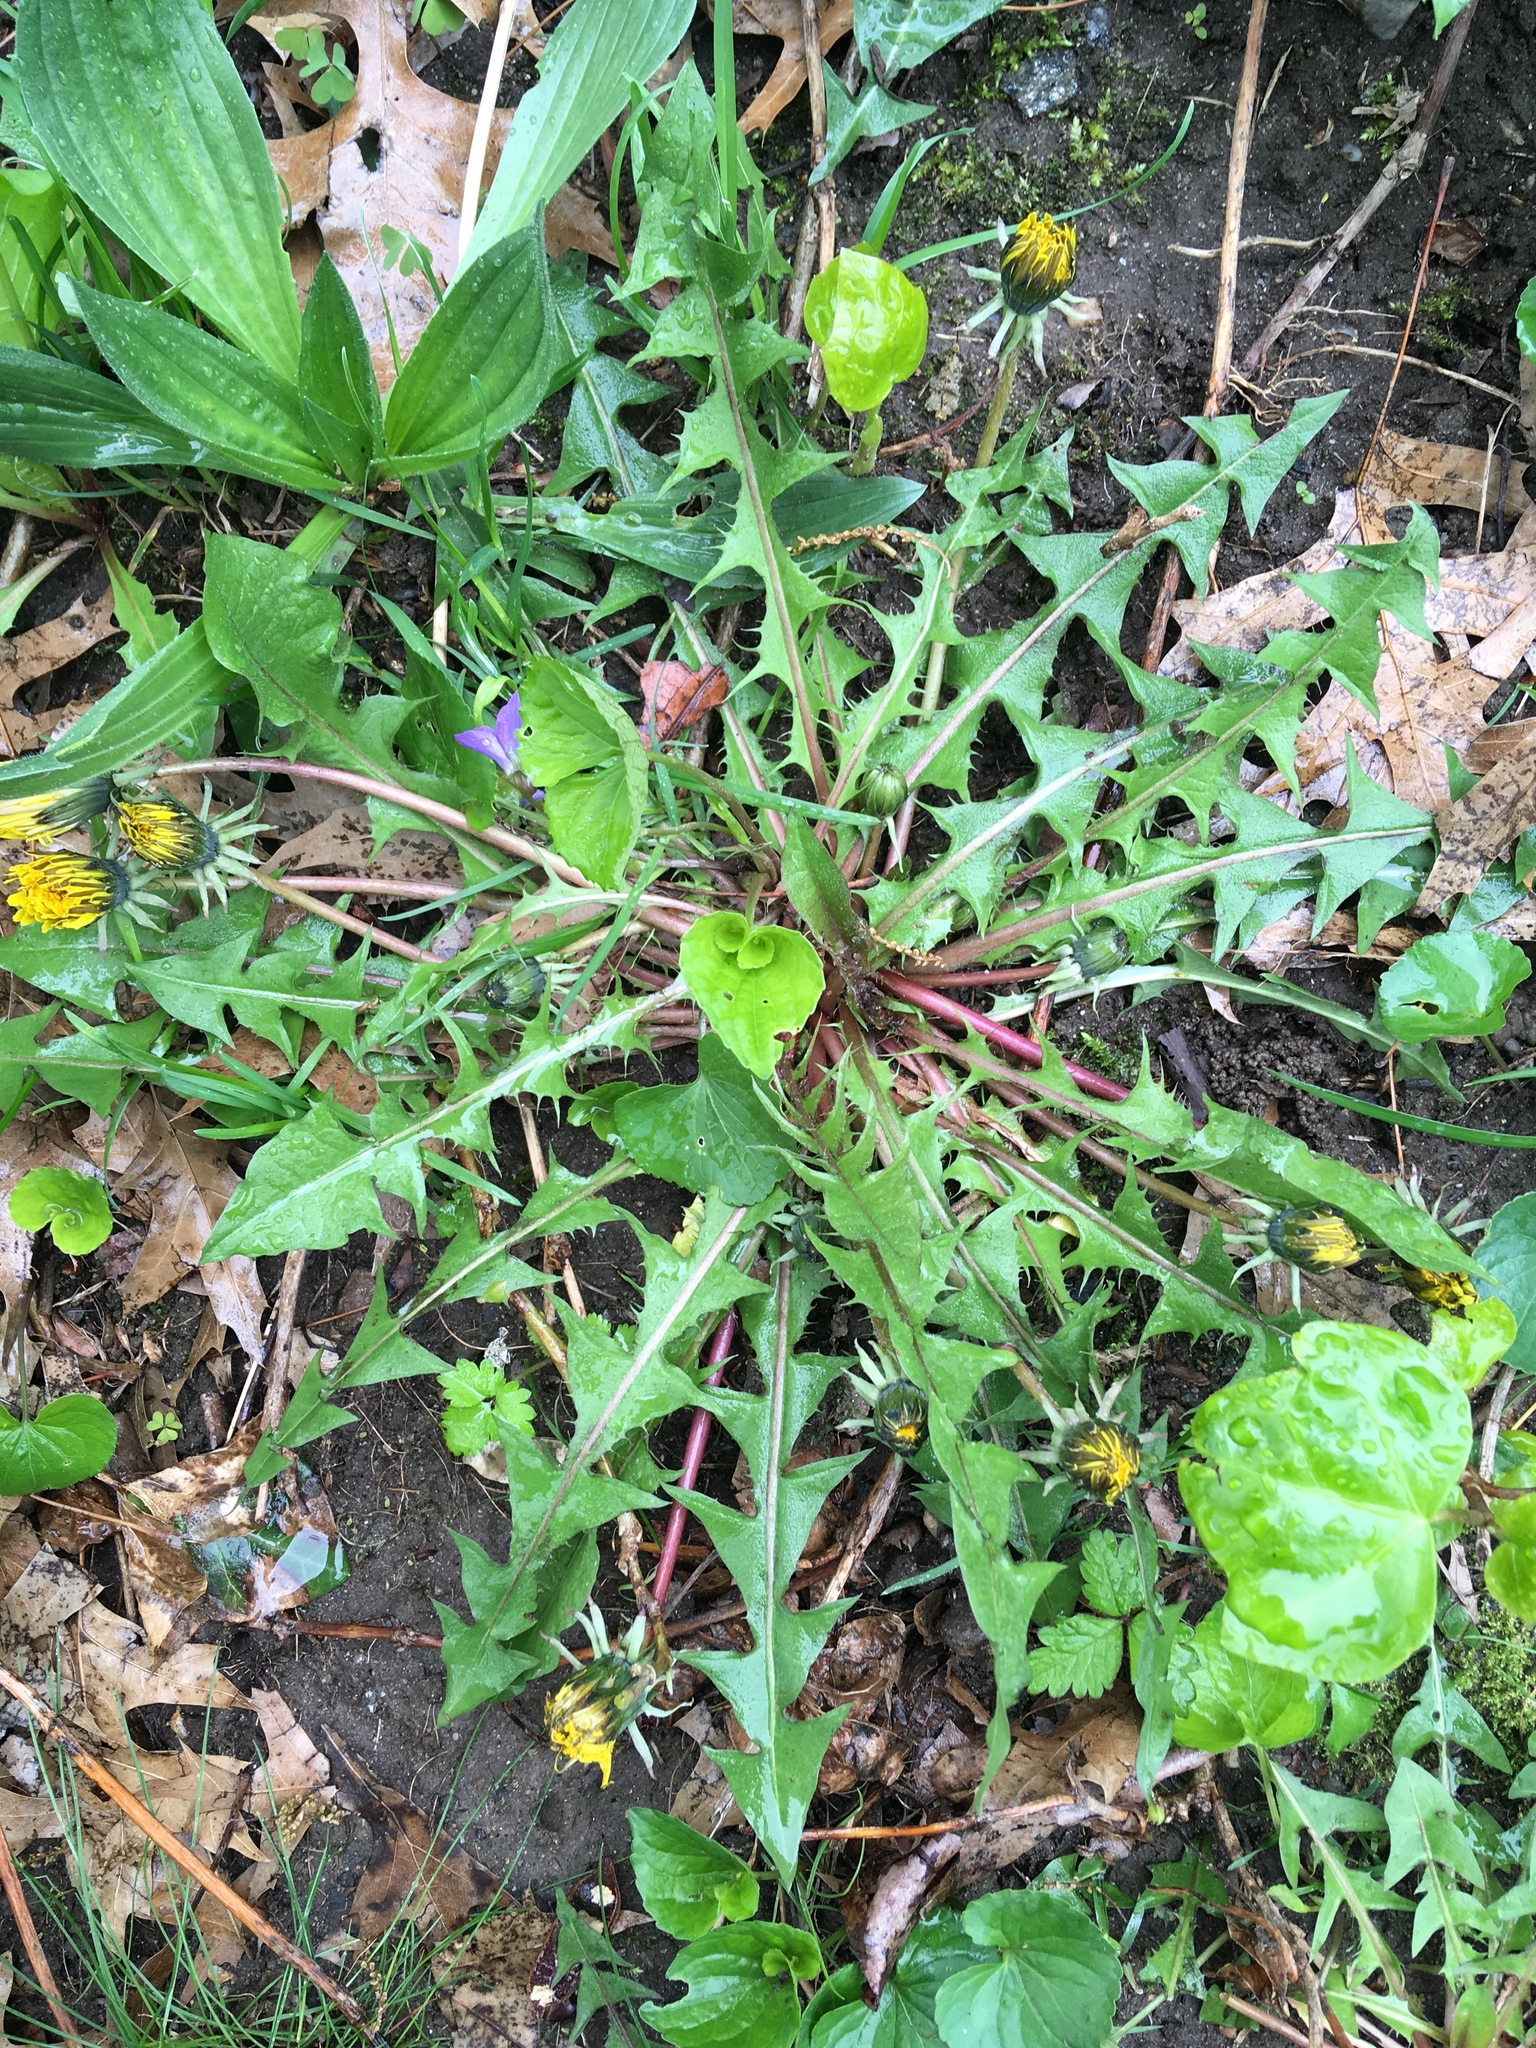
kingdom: Plantae
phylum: Tracheophyta
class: Magnoliopsida
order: Asterales
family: Asteraceae
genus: Taraxacum
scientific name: Taraxacum officinale
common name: Common dandelion
